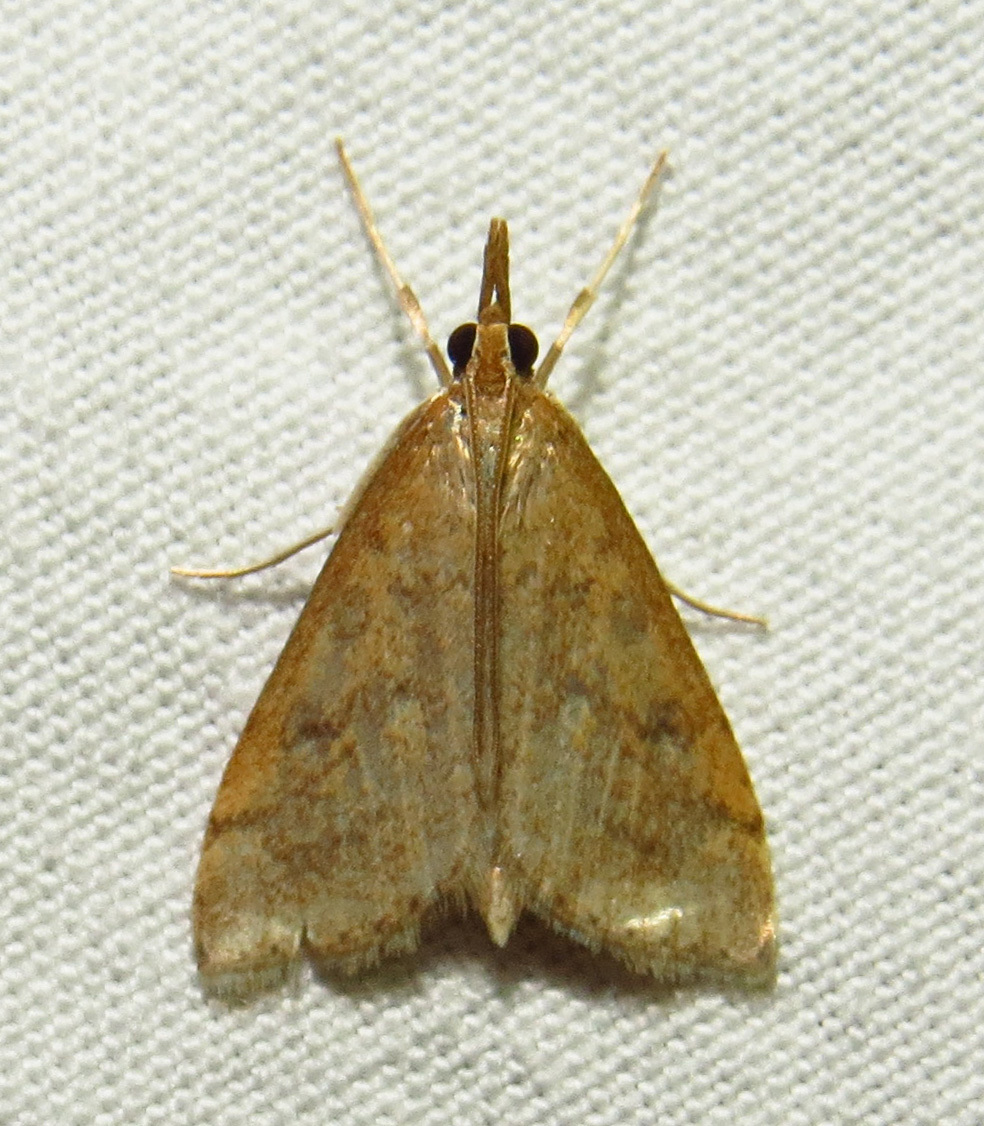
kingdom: Animalia
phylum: Arthropoda
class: Insecta
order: Lepidoptera
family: Crambidae
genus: Udea
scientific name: Udea rubigalis
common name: Celery leaftier moth
